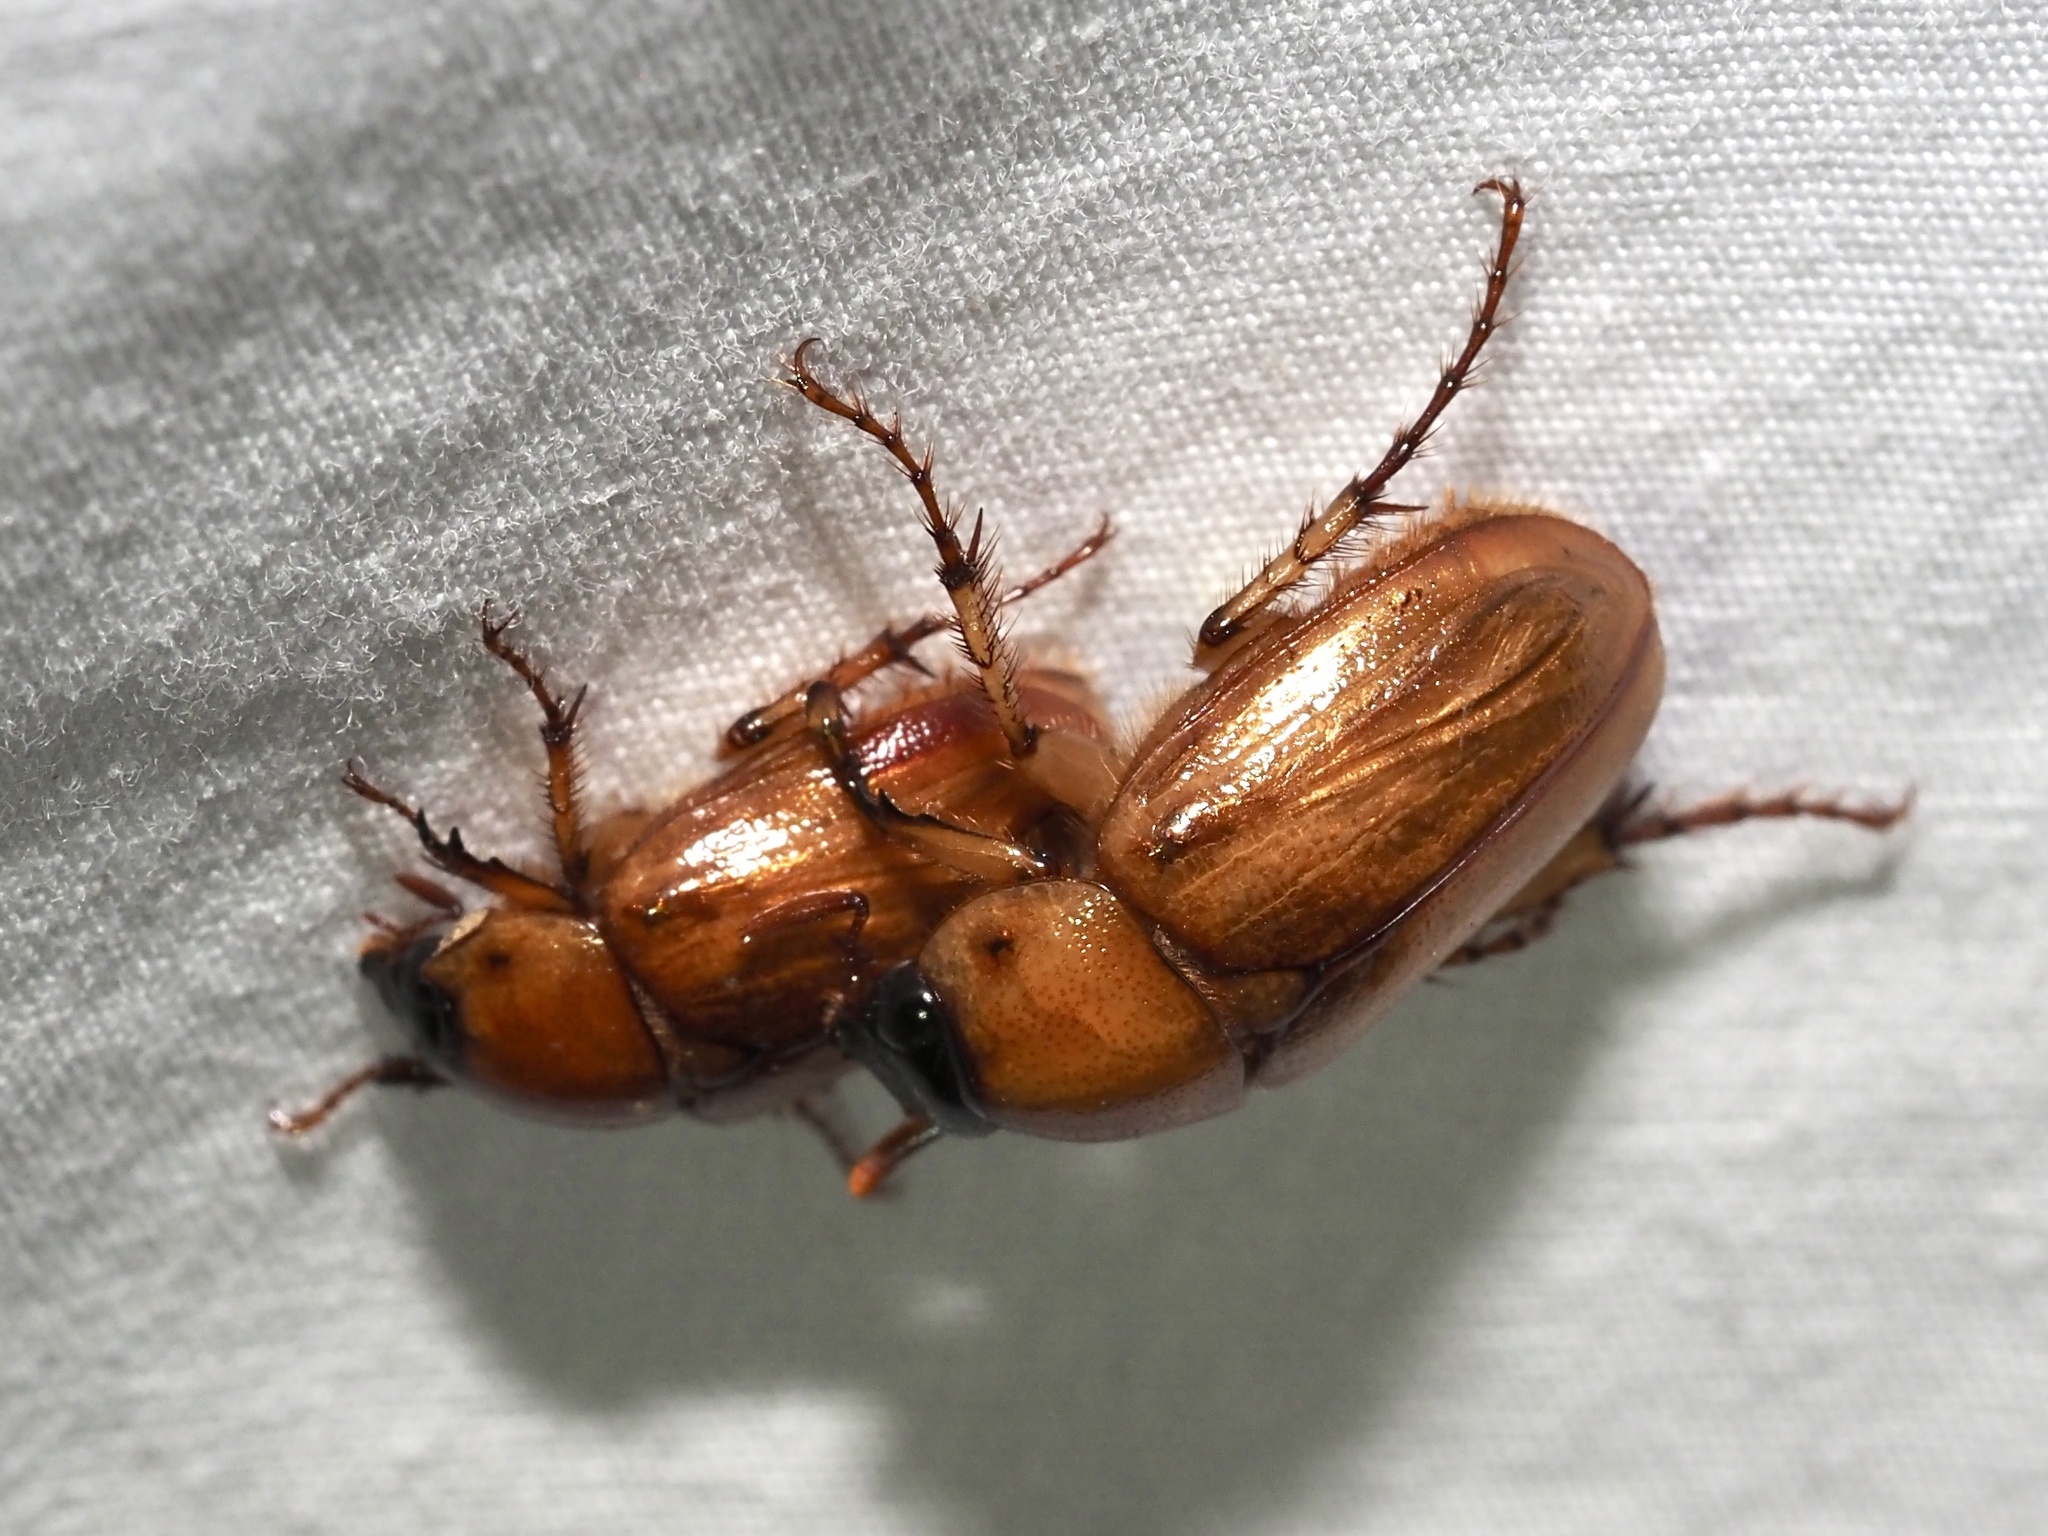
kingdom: Animalia
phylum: Arthropoda
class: Insecta
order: Coleoptera
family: Scarabaeidae
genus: Cyclocephala
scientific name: Cyclocephala lurida
